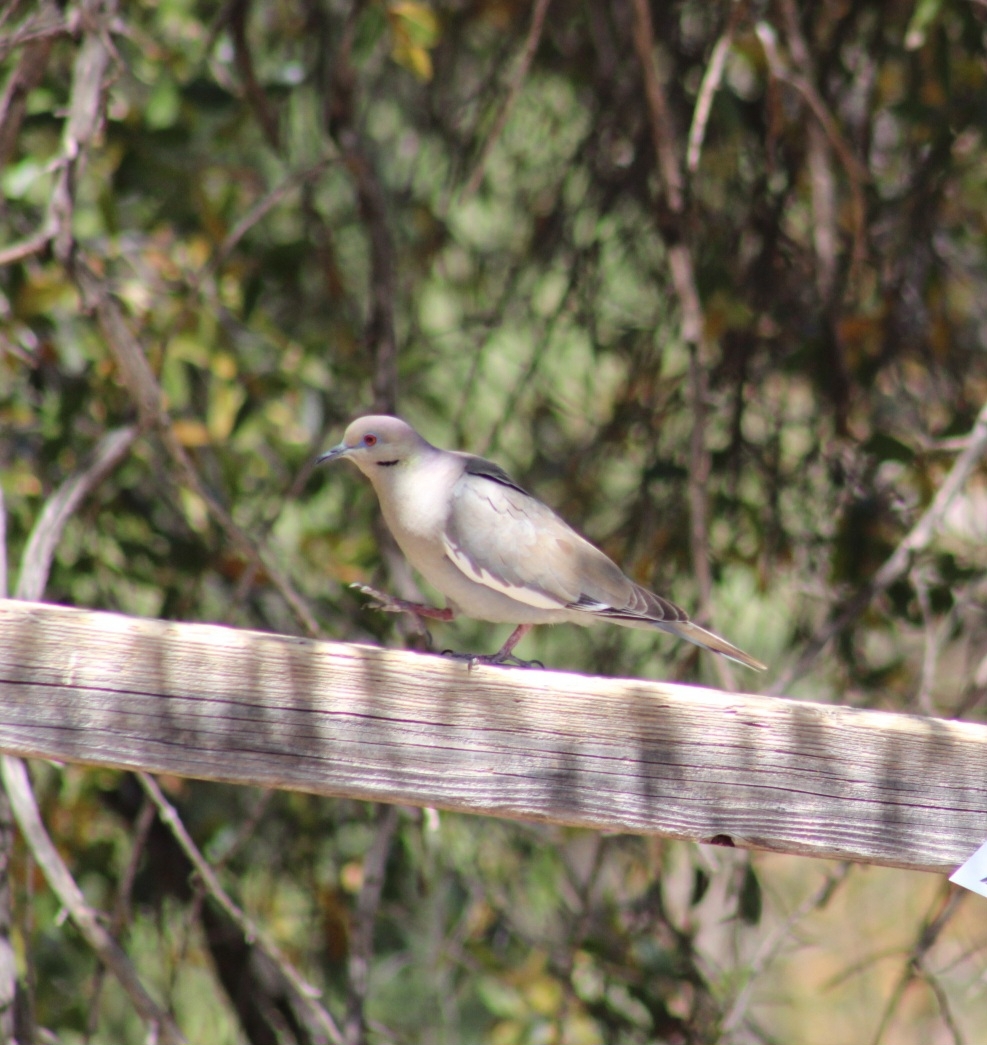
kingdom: Animalia
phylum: Chordata
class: Aves
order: Columbiformes
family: Columbidae
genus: Zenaida
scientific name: Zenaida asiatica
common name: White-winged dove
